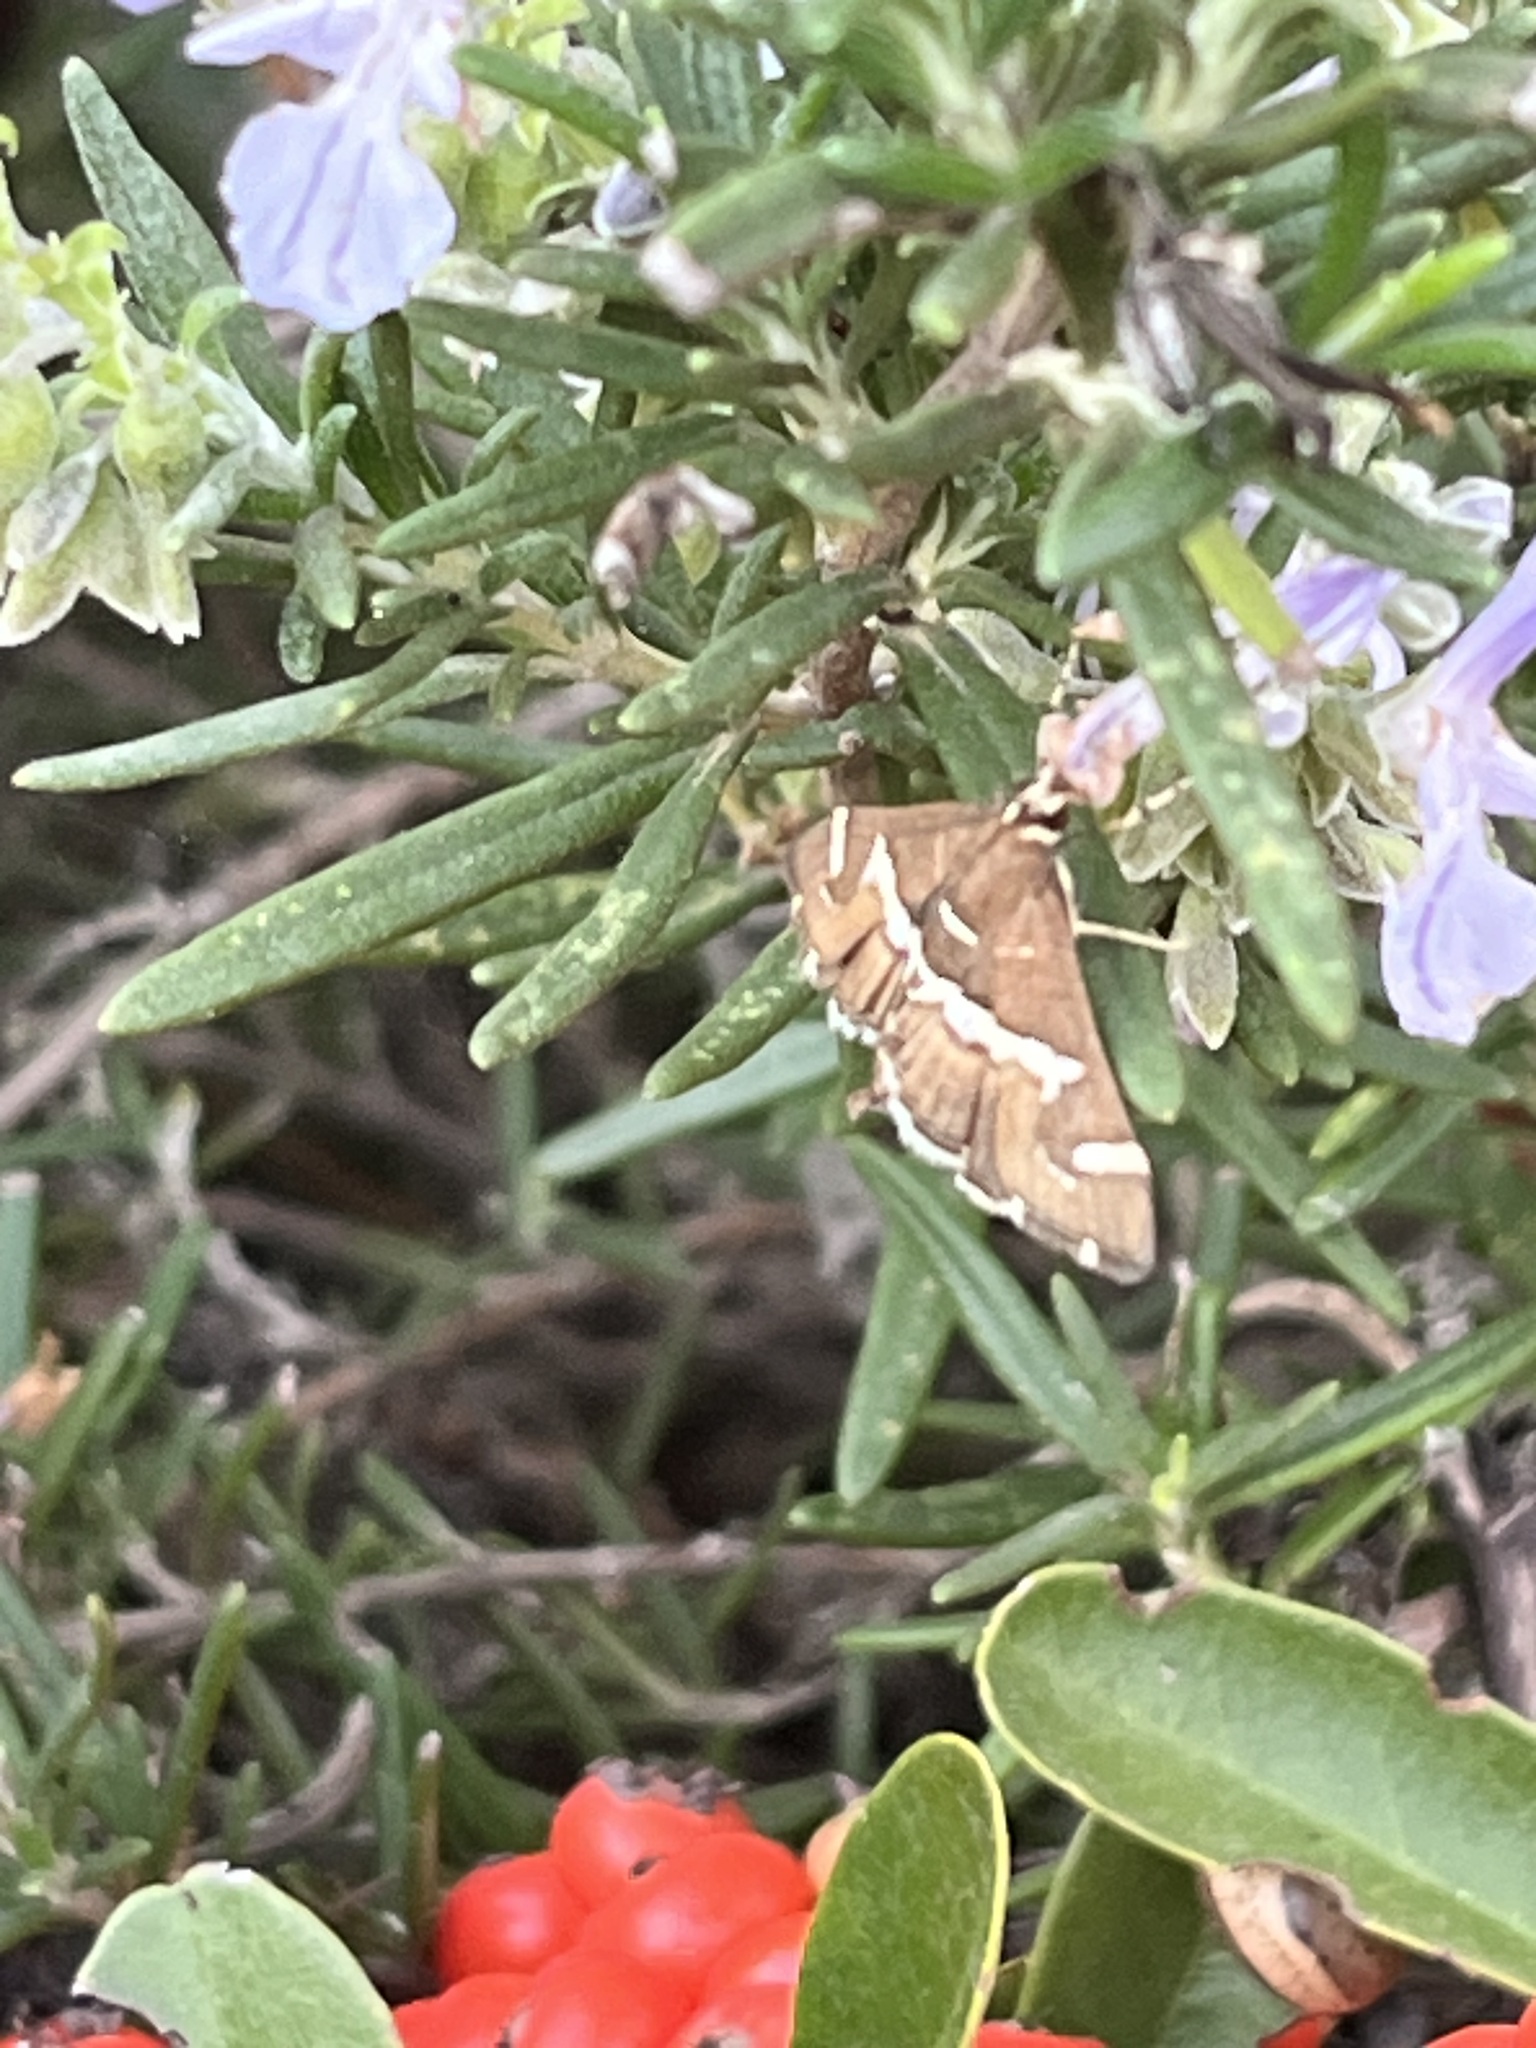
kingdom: Animalia
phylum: Arthropoda
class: Insecta
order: Lepidoptera
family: Crambidae
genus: Spoladea
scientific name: Spoladea recurvalis
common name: Beet webworm moth
